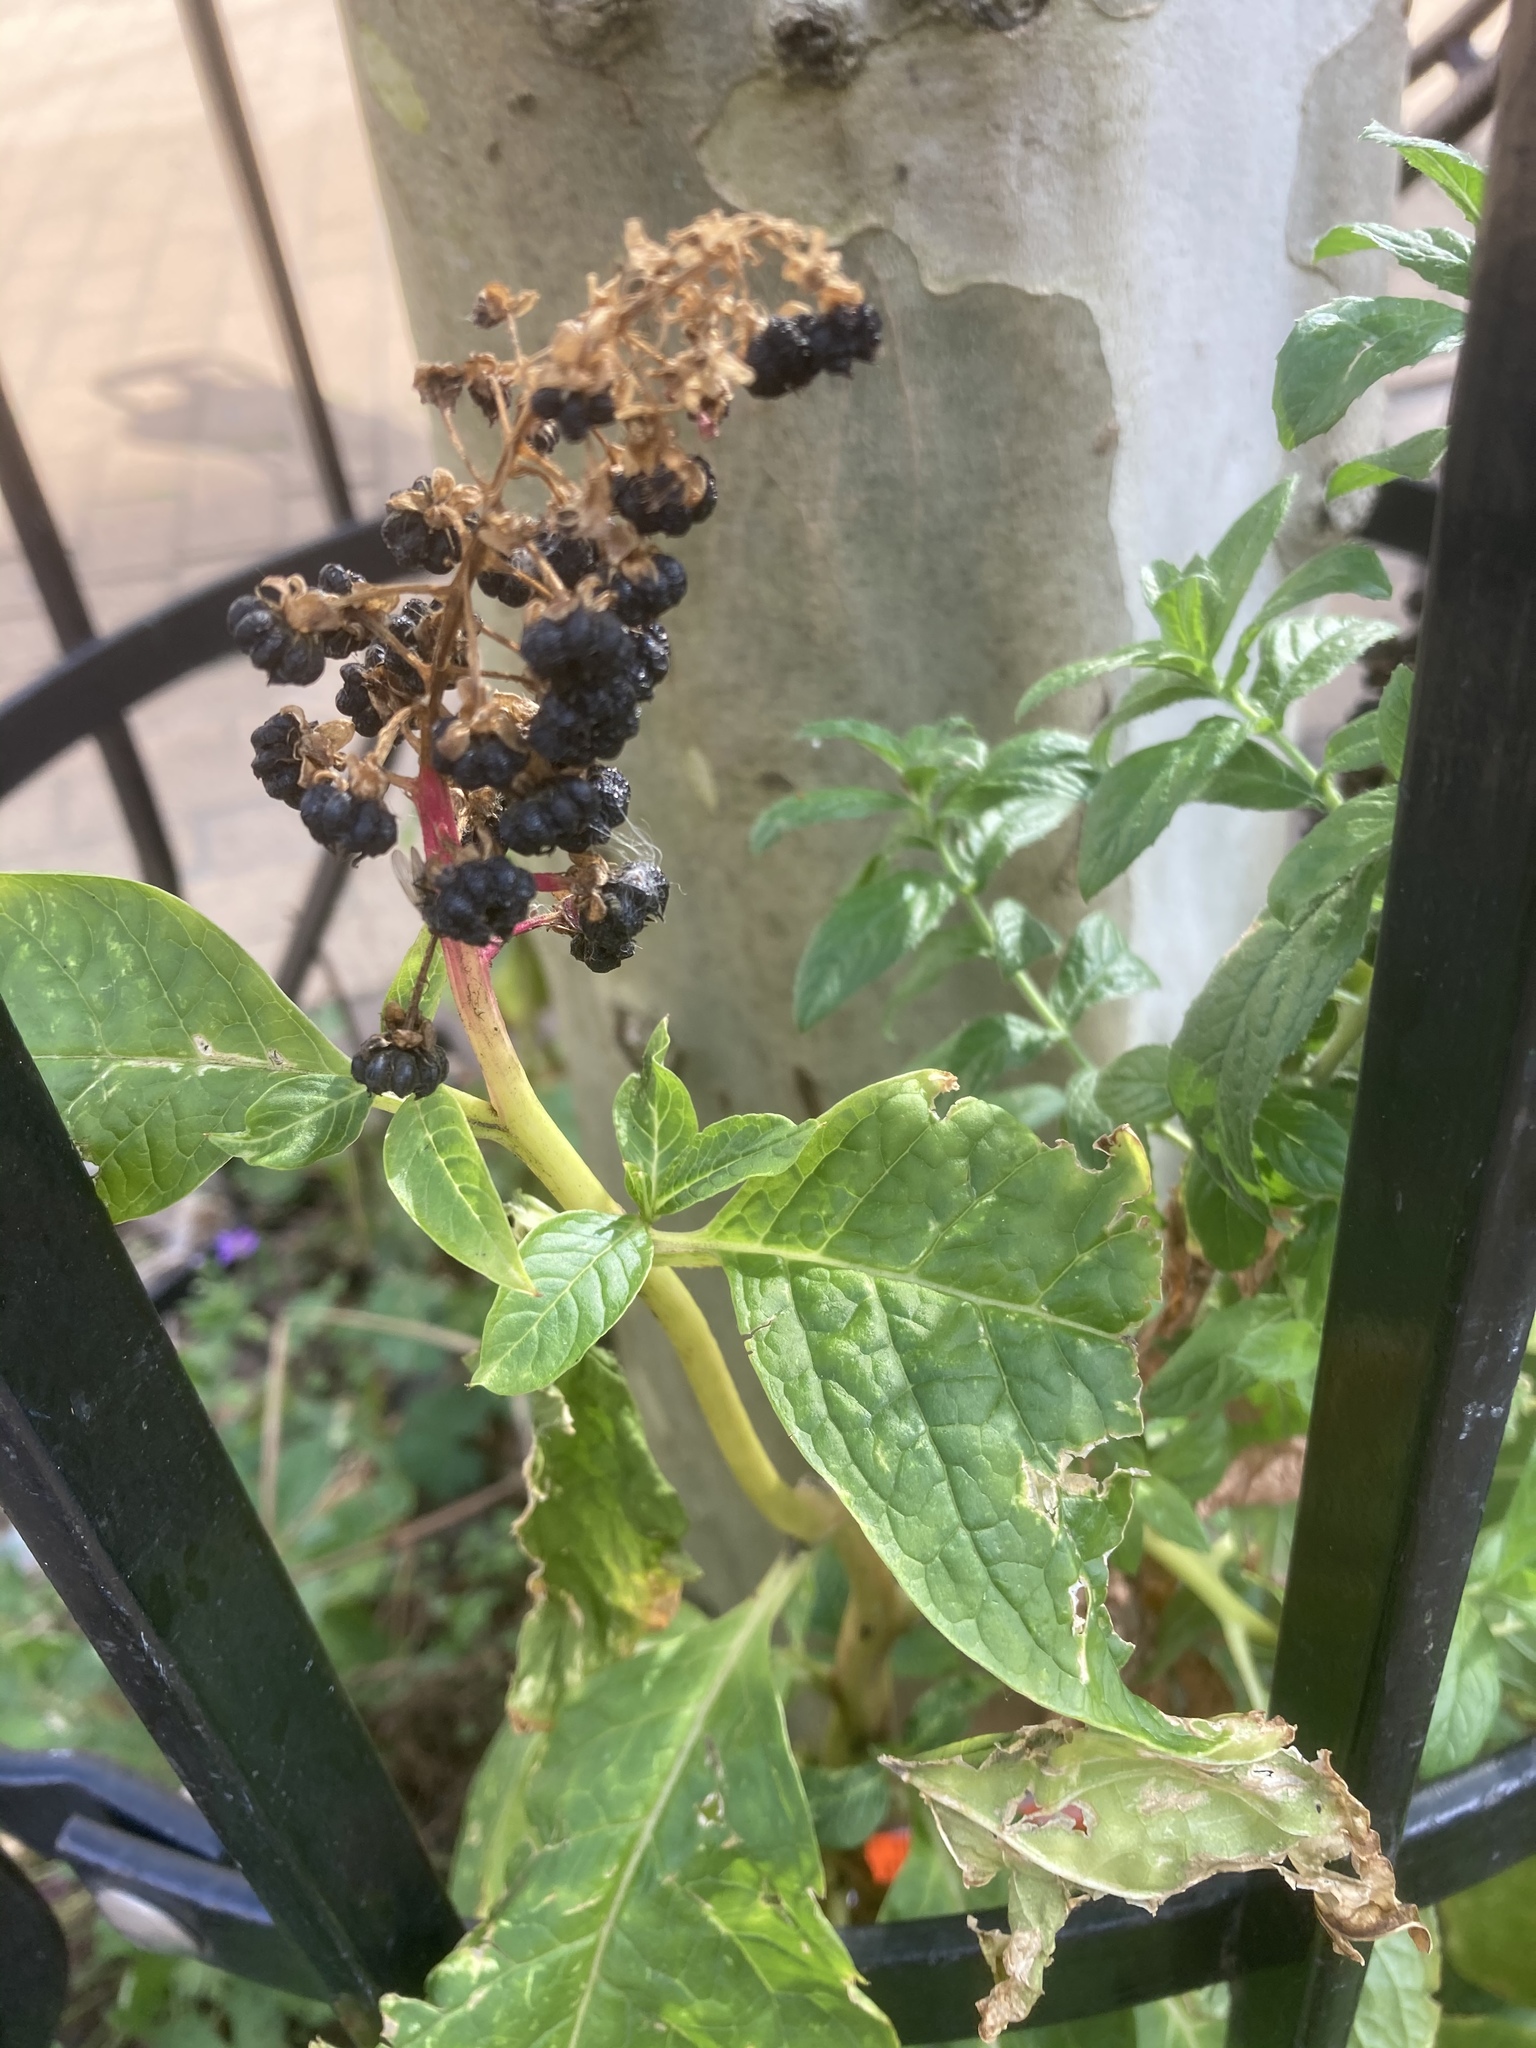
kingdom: Plantae
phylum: Tracheophyta
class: Magnoliopsida
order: Caryophyllales
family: Phytolaccaceae
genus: Phytolacca
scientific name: Phytolacca acinosa
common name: Indian pokeweed
